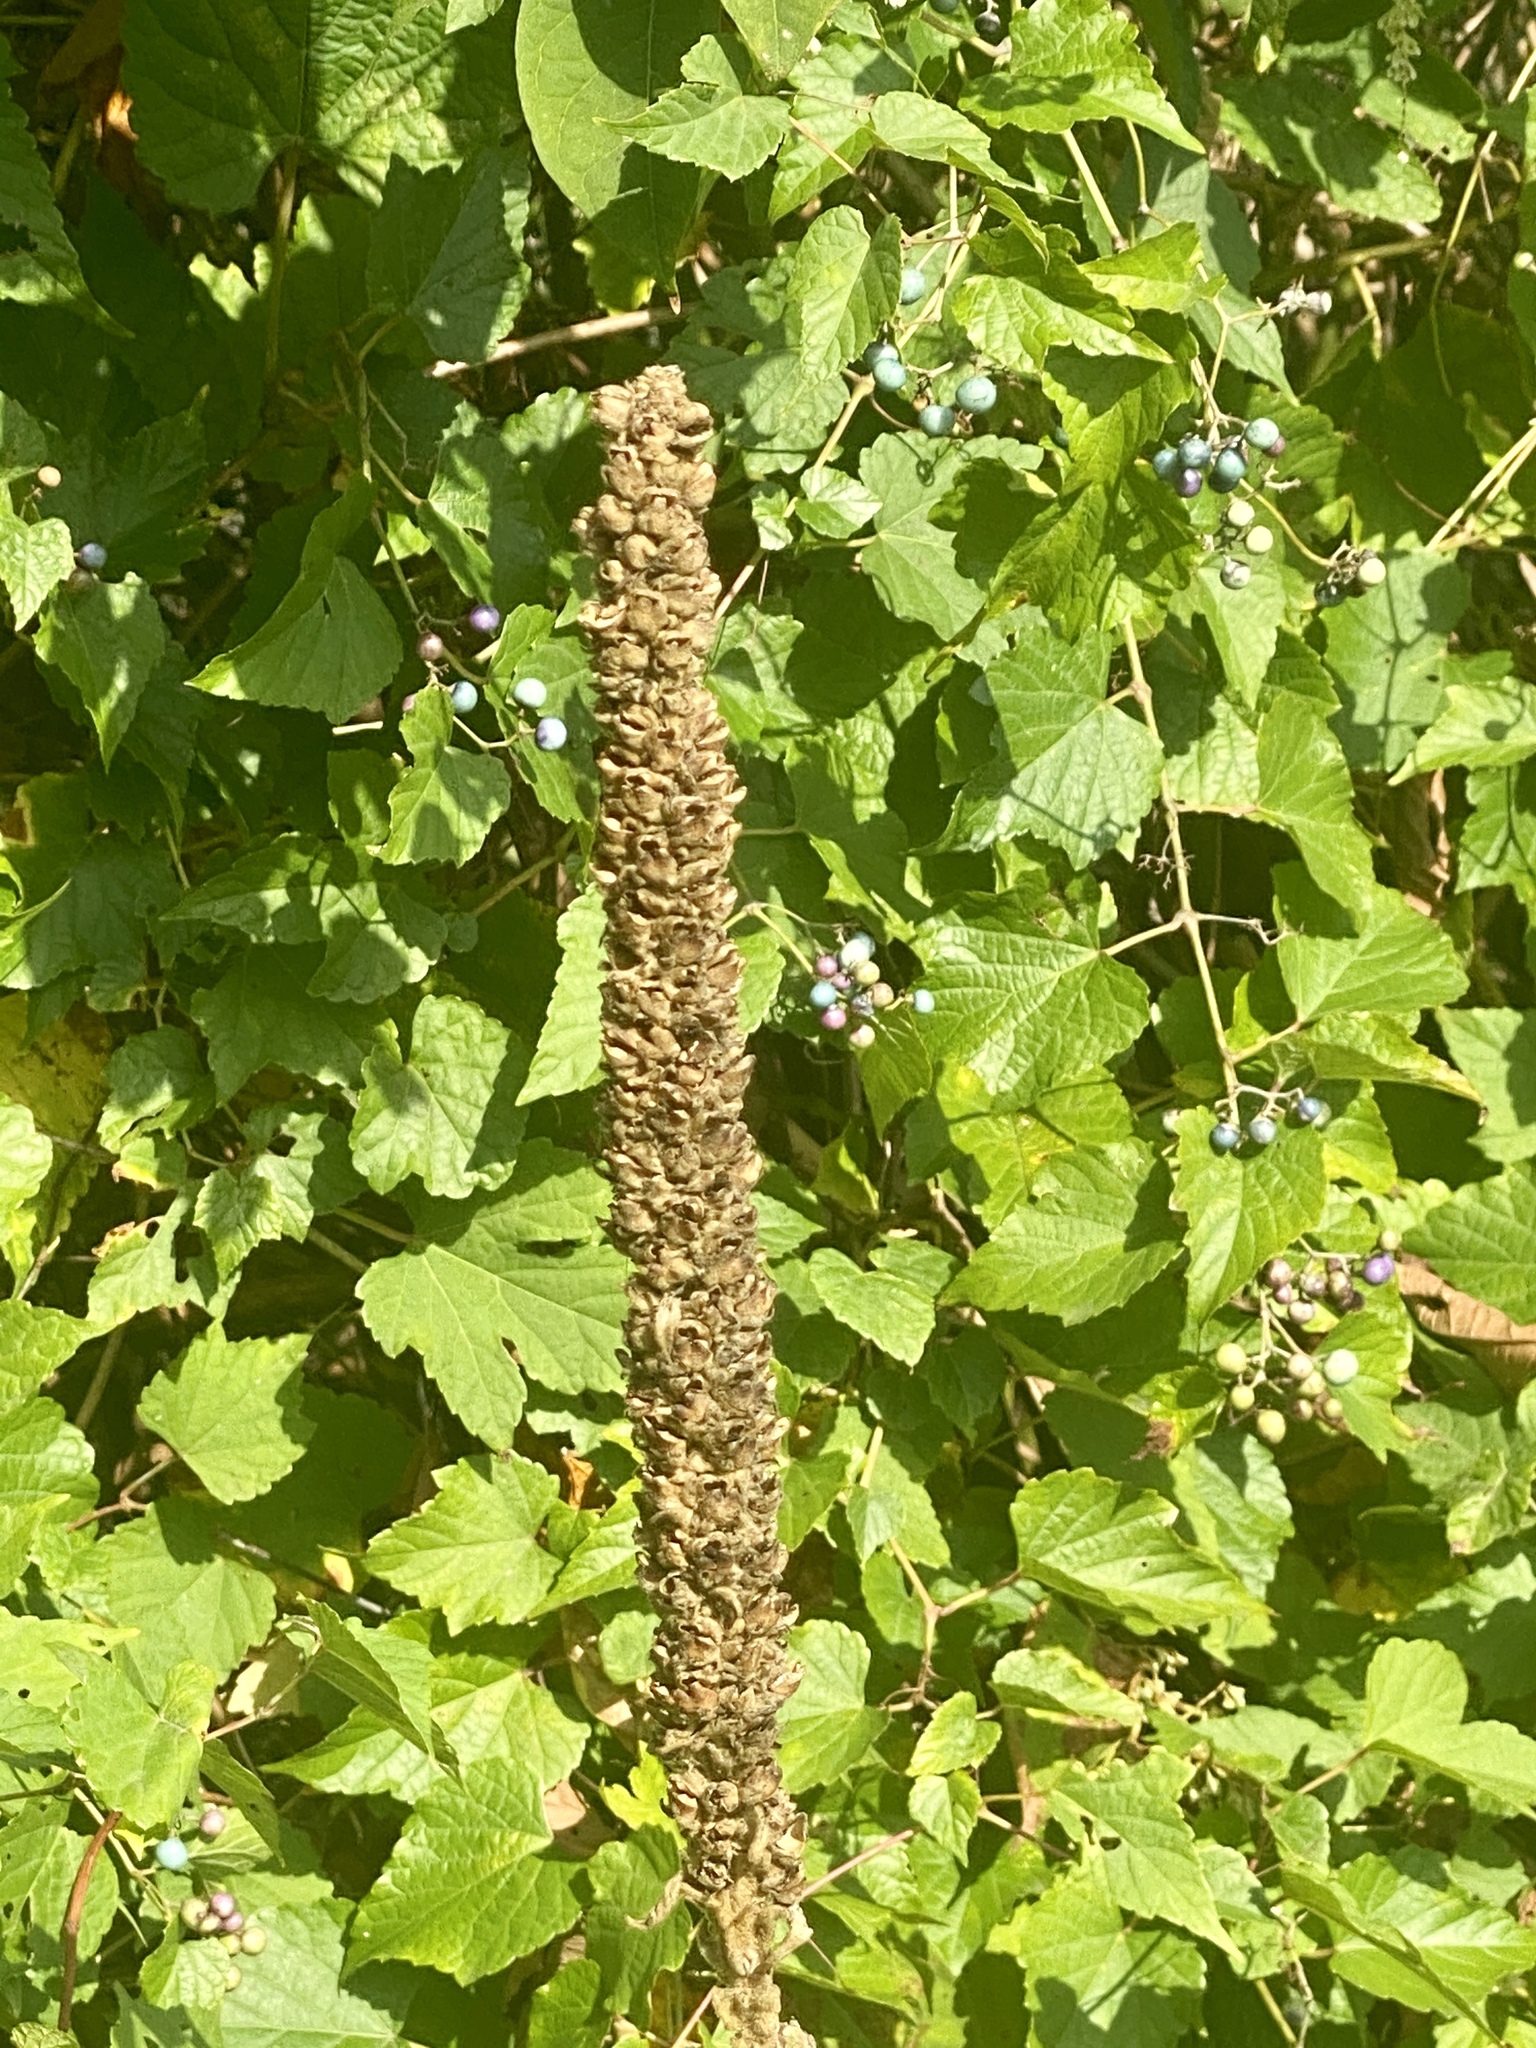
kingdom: Plantae
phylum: Tracheophyta
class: Magnoliopsida
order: Lamiales
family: Scrophulariaceae
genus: Verbascum
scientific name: Verbascum thapsus
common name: Common mullein
